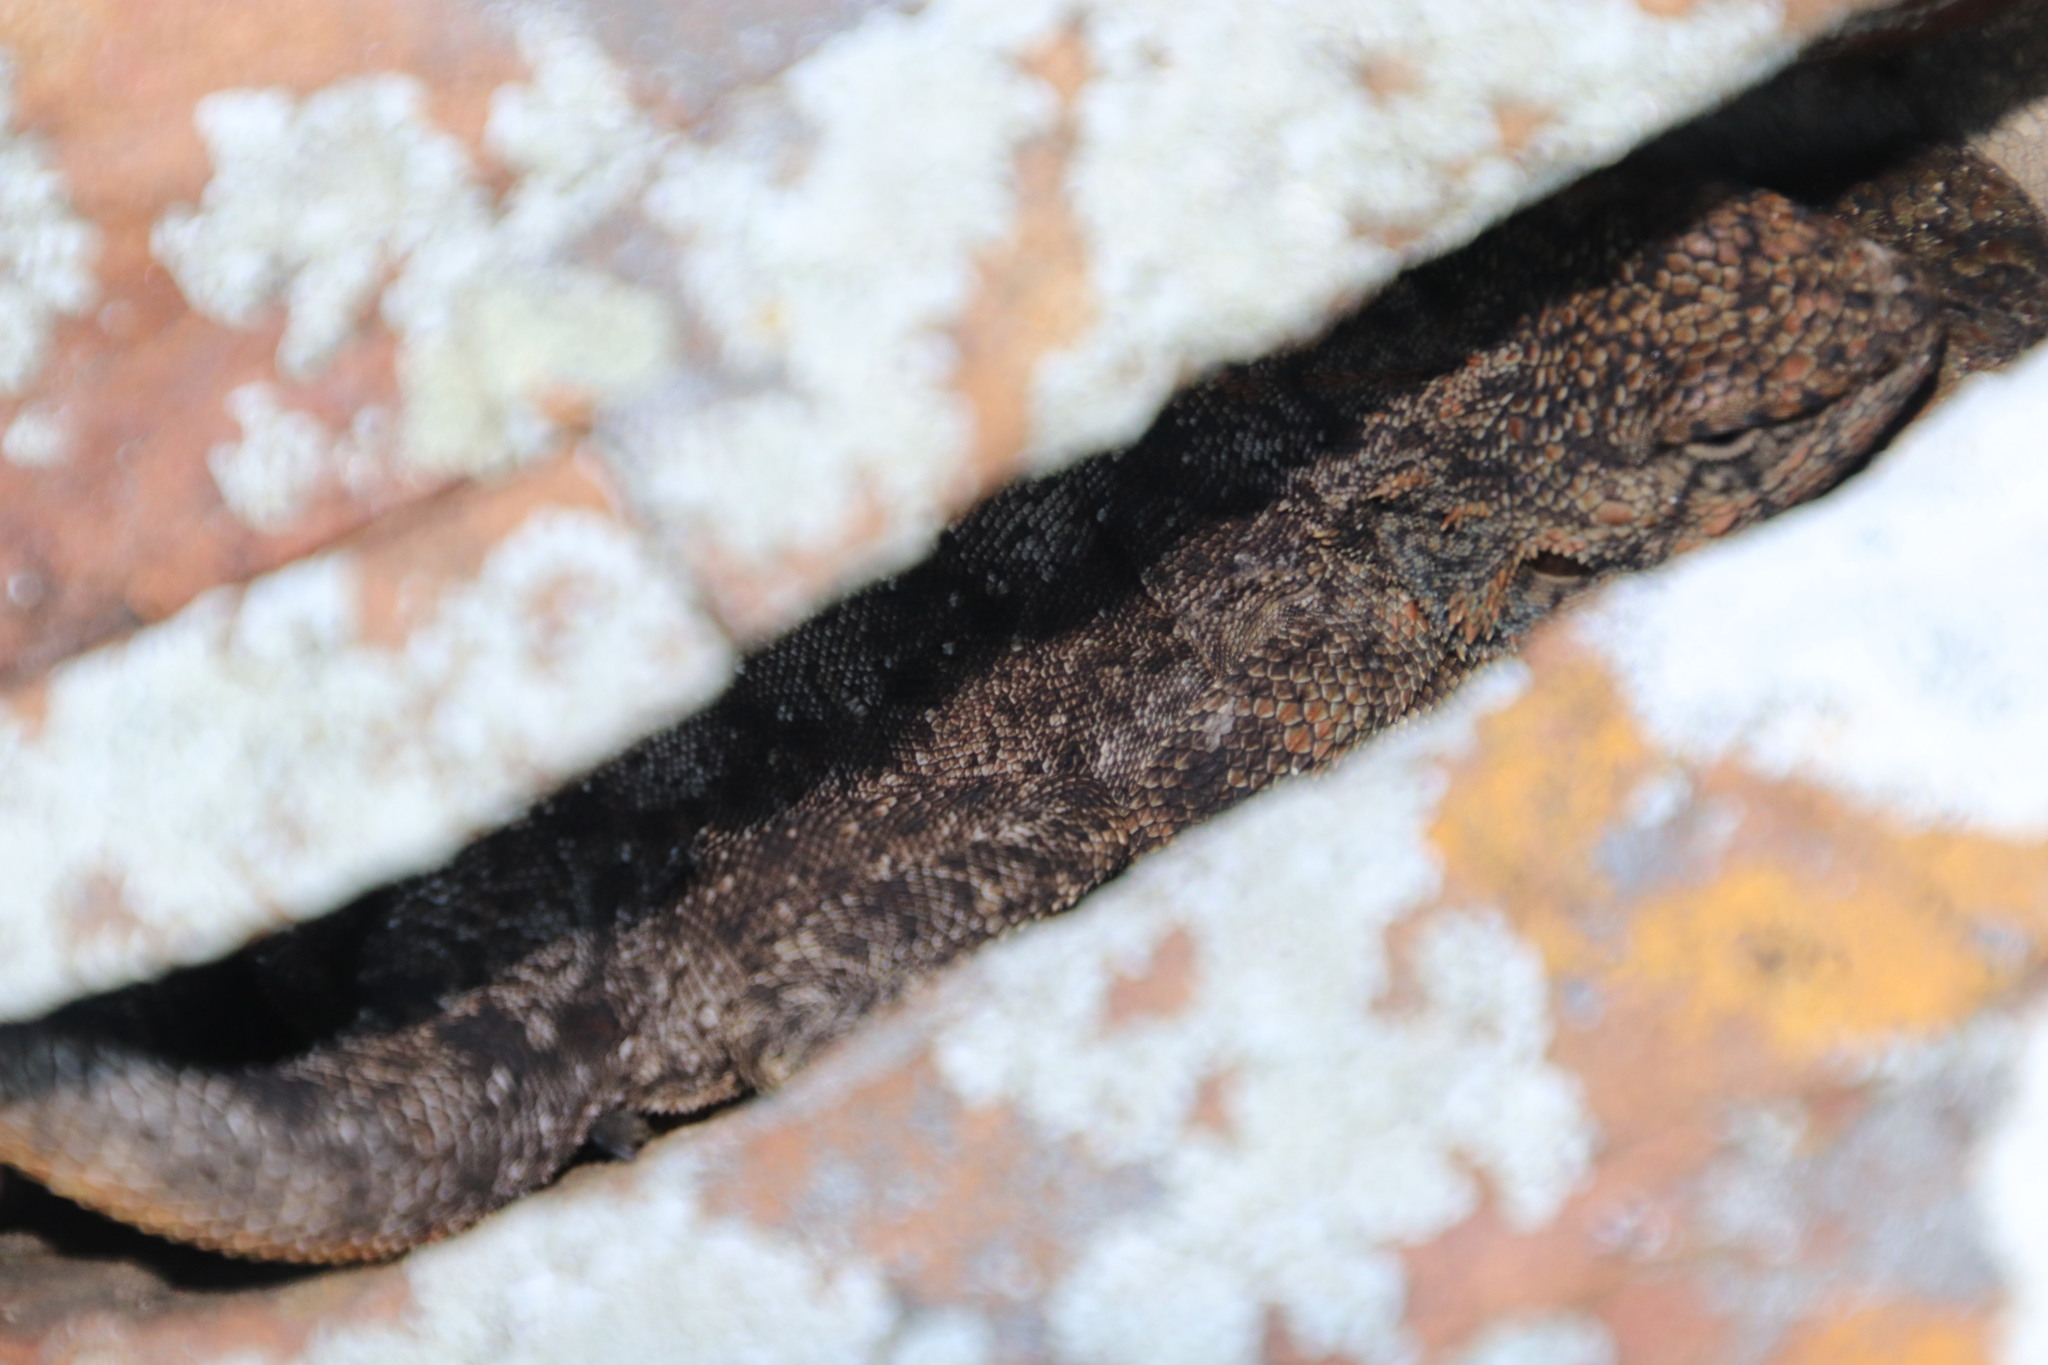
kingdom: Animalia
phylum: Chordata
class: Squamata
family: Agamidae
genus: Agama
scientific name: Agama atra
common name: Southern african rock agama
